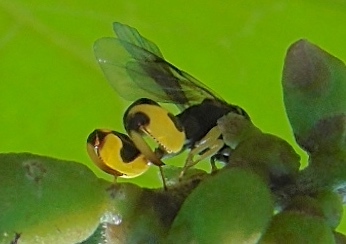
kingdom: Animalia
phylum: Arthropoda
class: Insecta
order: Hymenoptera
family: Chalcididae
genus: Conura
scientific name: Conura
